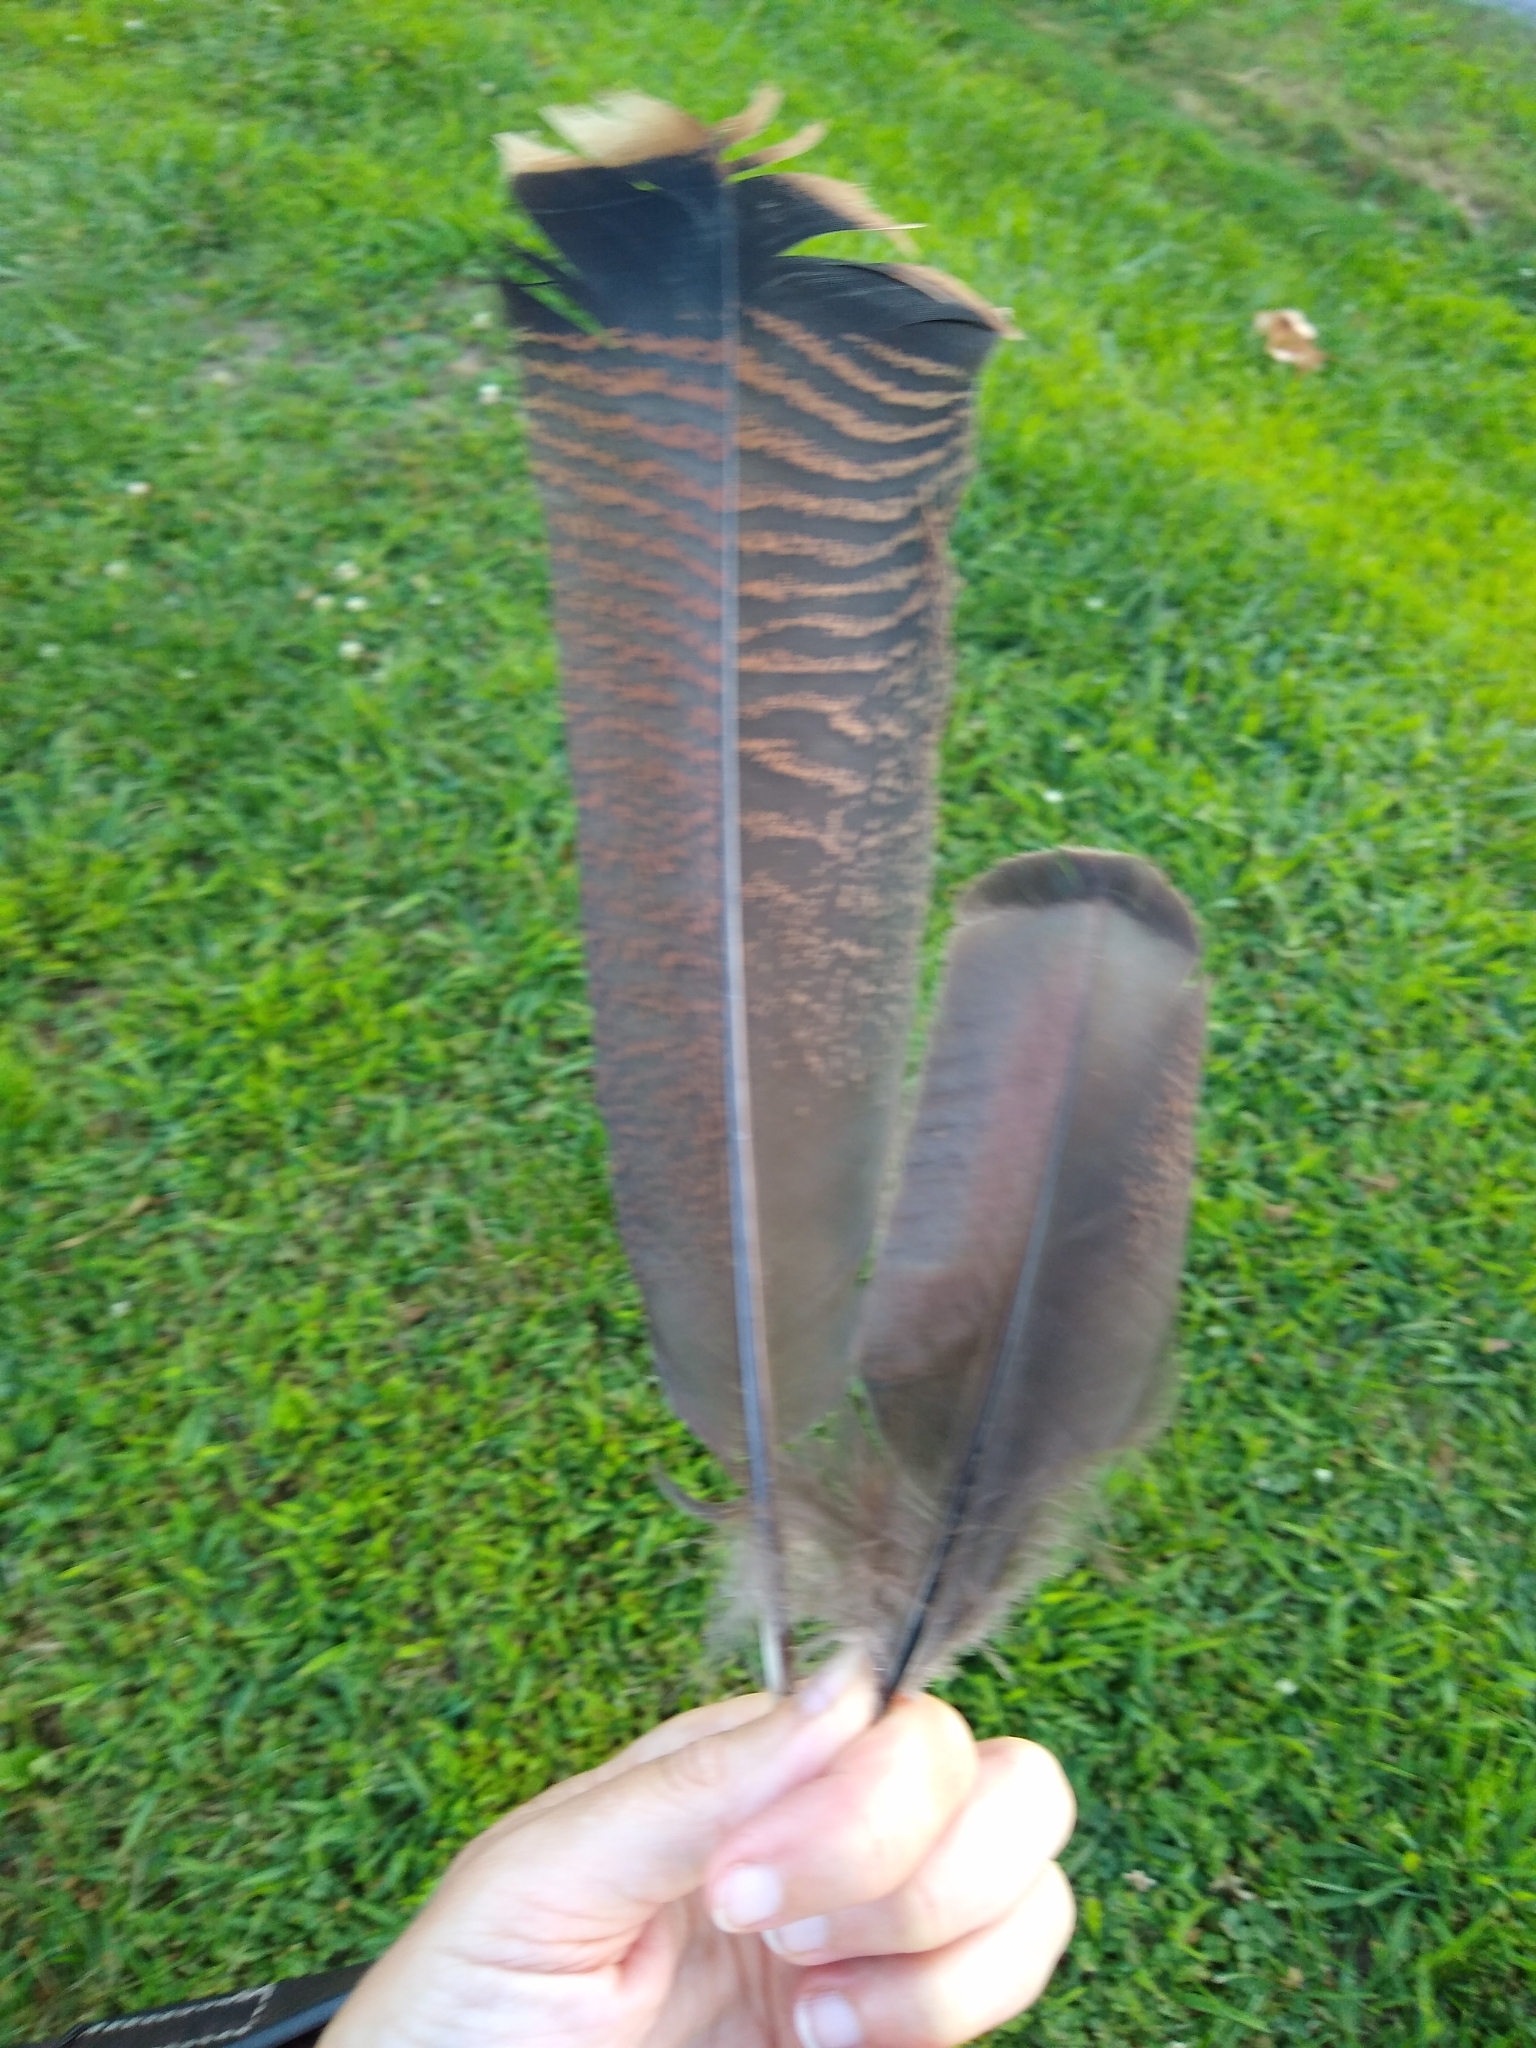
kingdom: Animalia
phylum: Chordata
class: Aves
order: Galliformes
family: Phasianidae
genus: Meleagris
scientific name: Meleagris gallopavo
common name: Wild turkey
